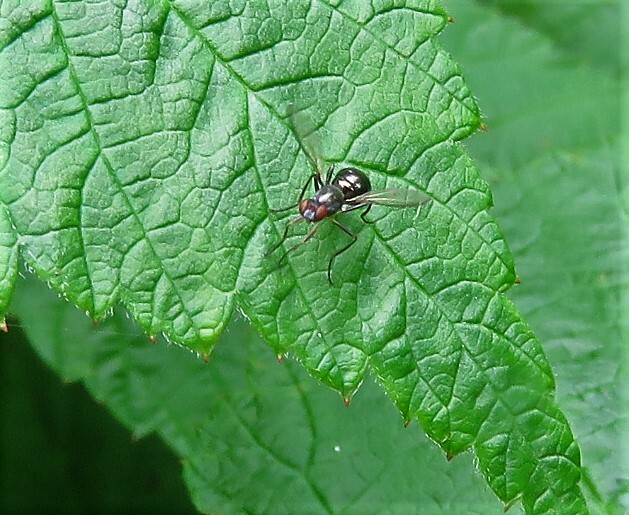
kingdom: Animalia
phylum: Arthropoda
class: Insecta
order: Diptera
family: Sepsidae
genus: Sepsis
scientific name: Sepsis
